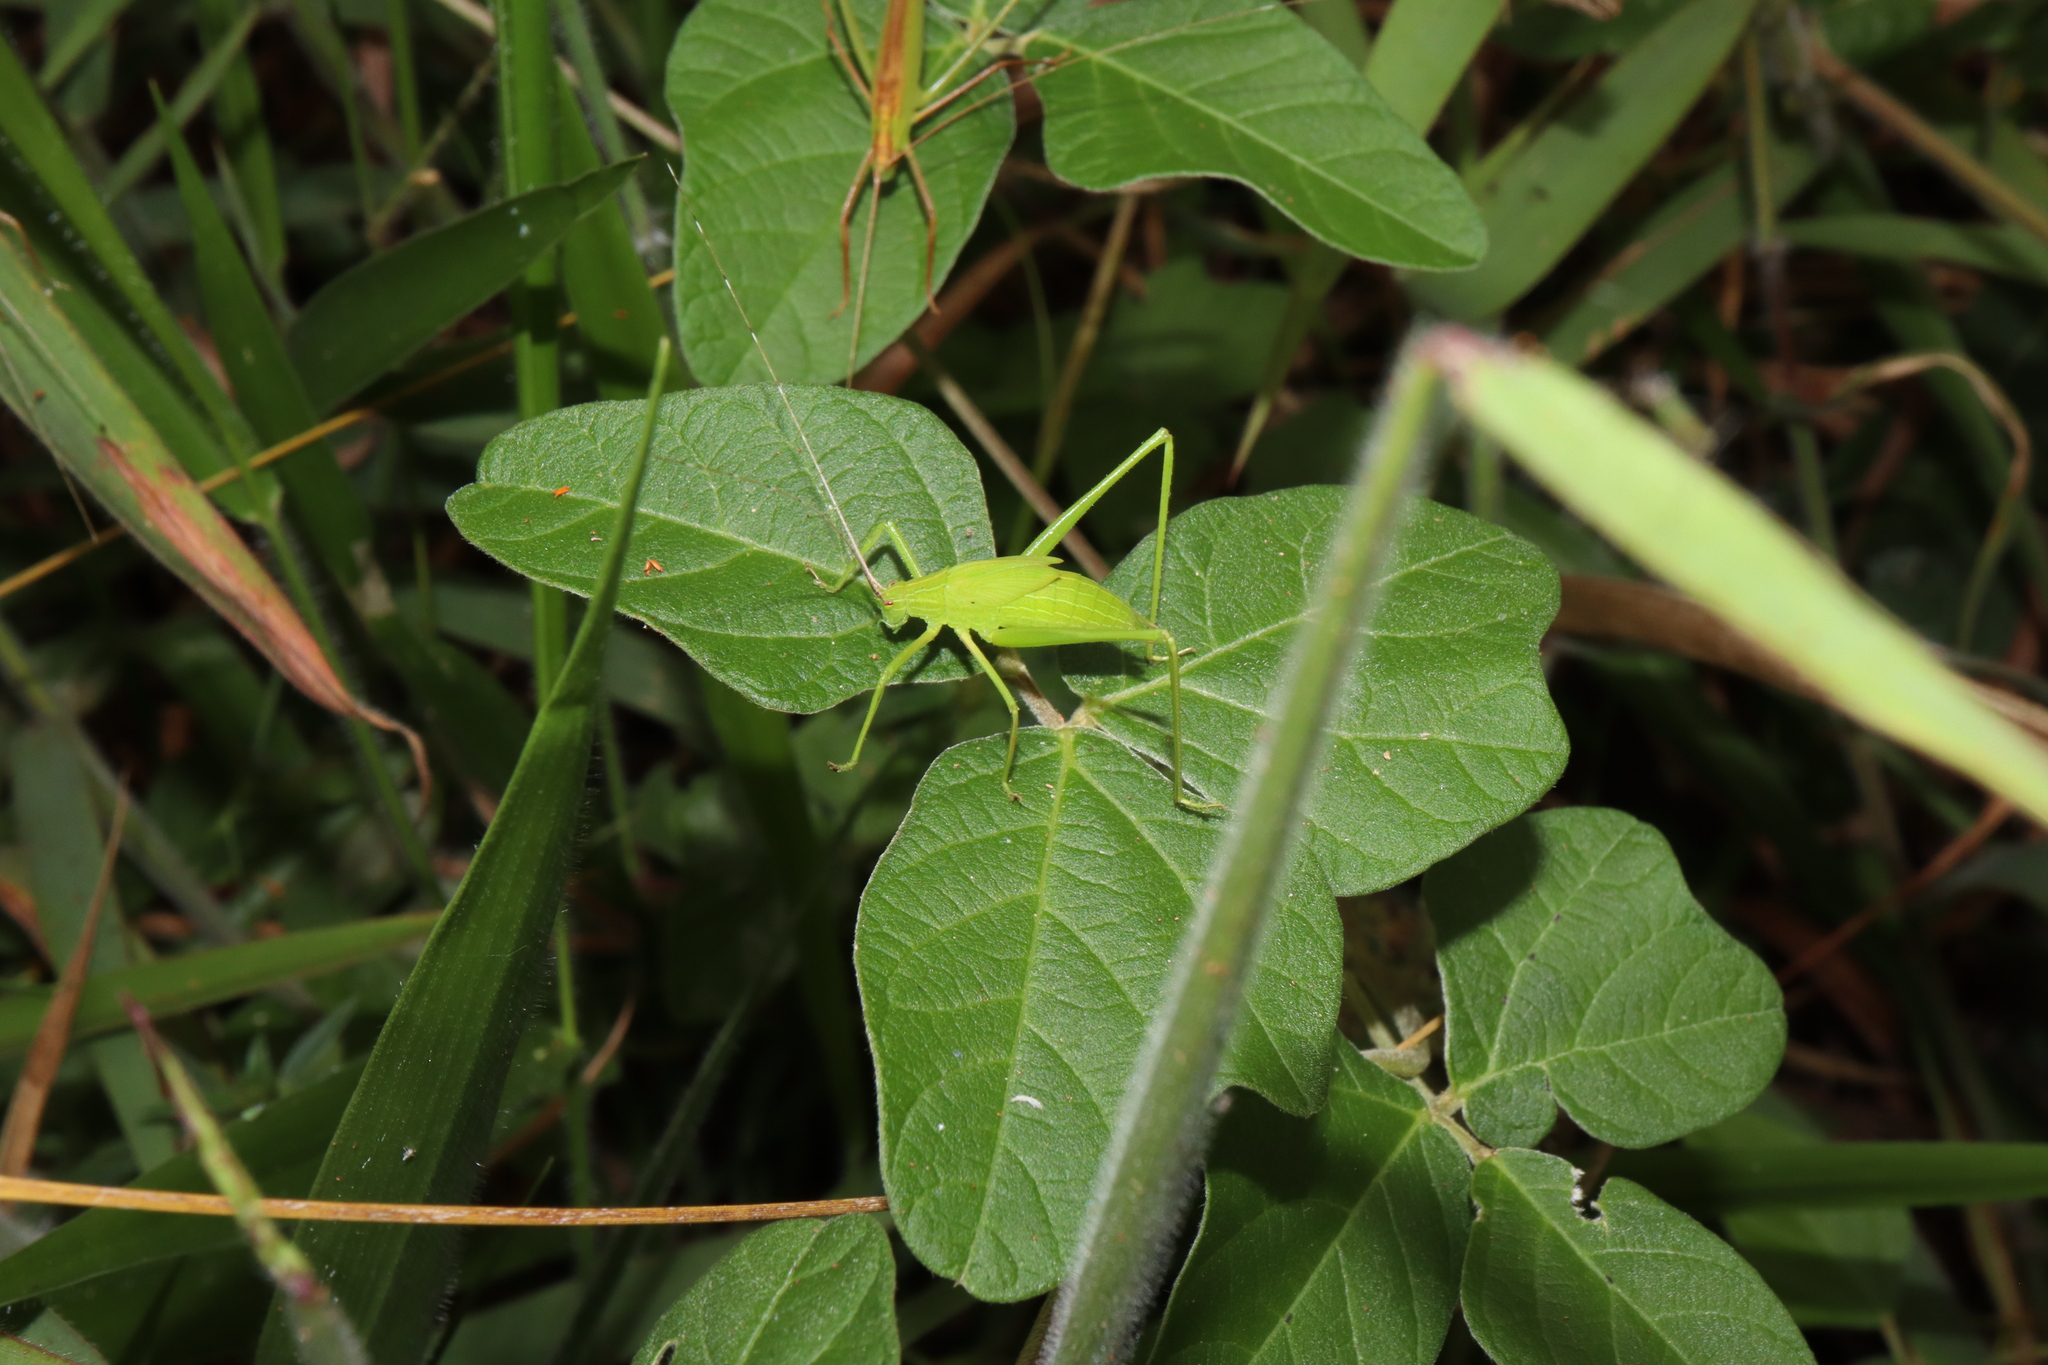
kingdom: Animalia
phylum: Arthropoda
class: Insecta
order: Orthoptera
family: Tettigoniidae
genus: Ducetia
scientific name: Ducetia antipoda
